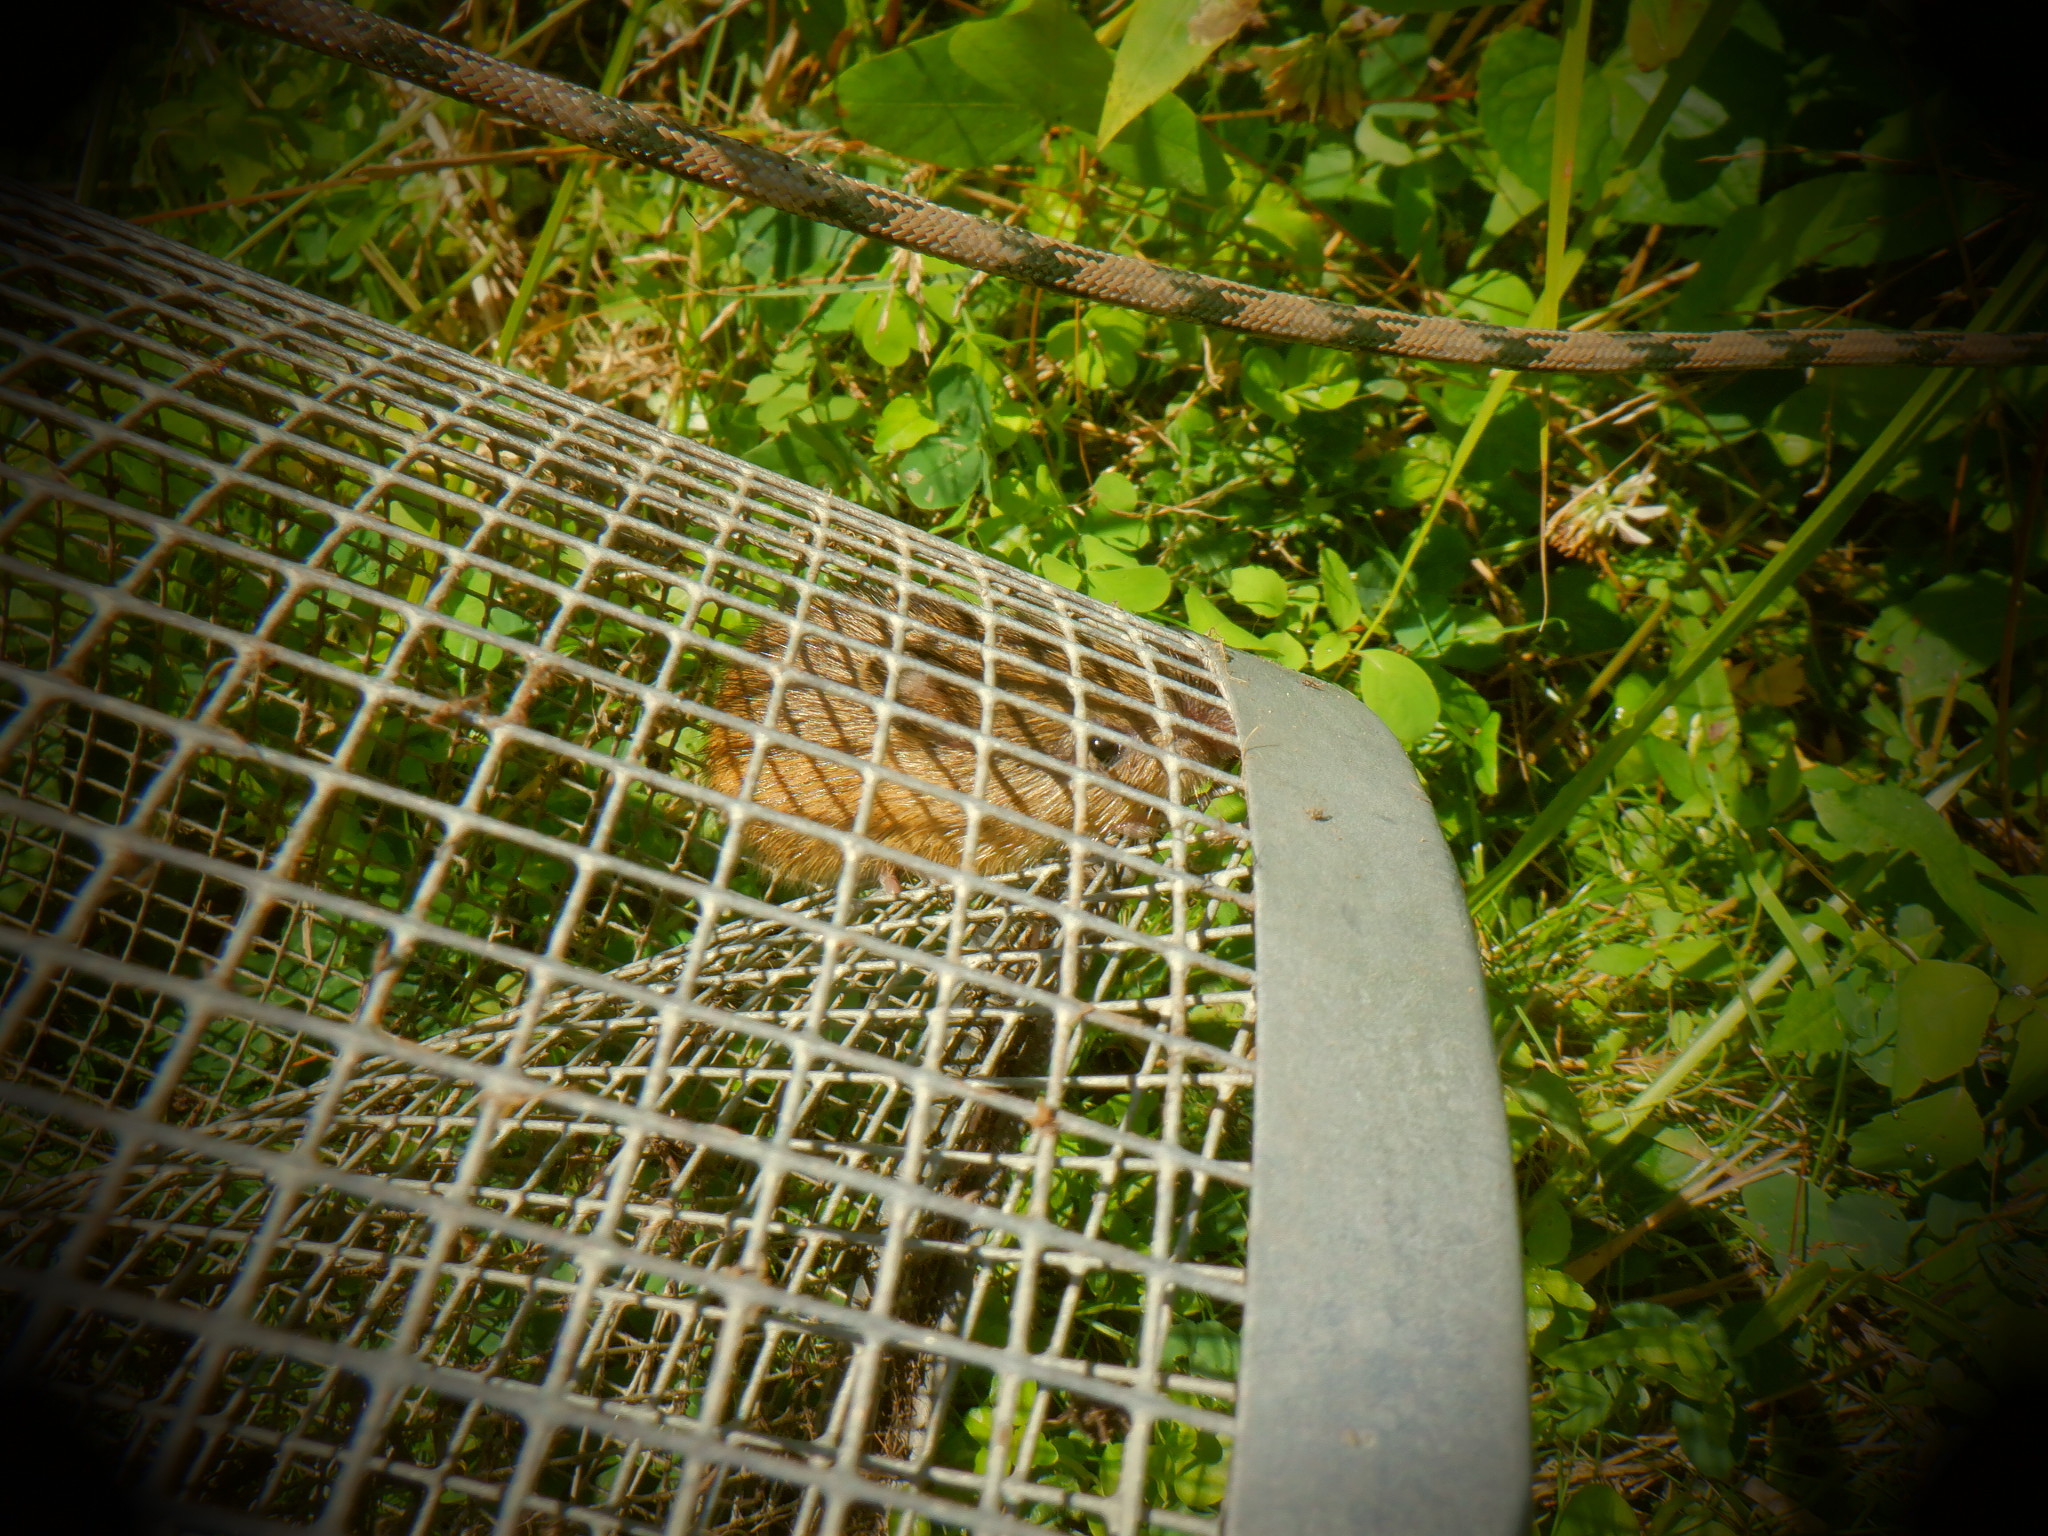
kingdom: Animalia
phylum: Chordata
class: Mammalia
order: Rodentia
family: Dipodidae
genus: Zapus
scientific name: Zapus hudsonius
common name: Meadow jumping mouse
